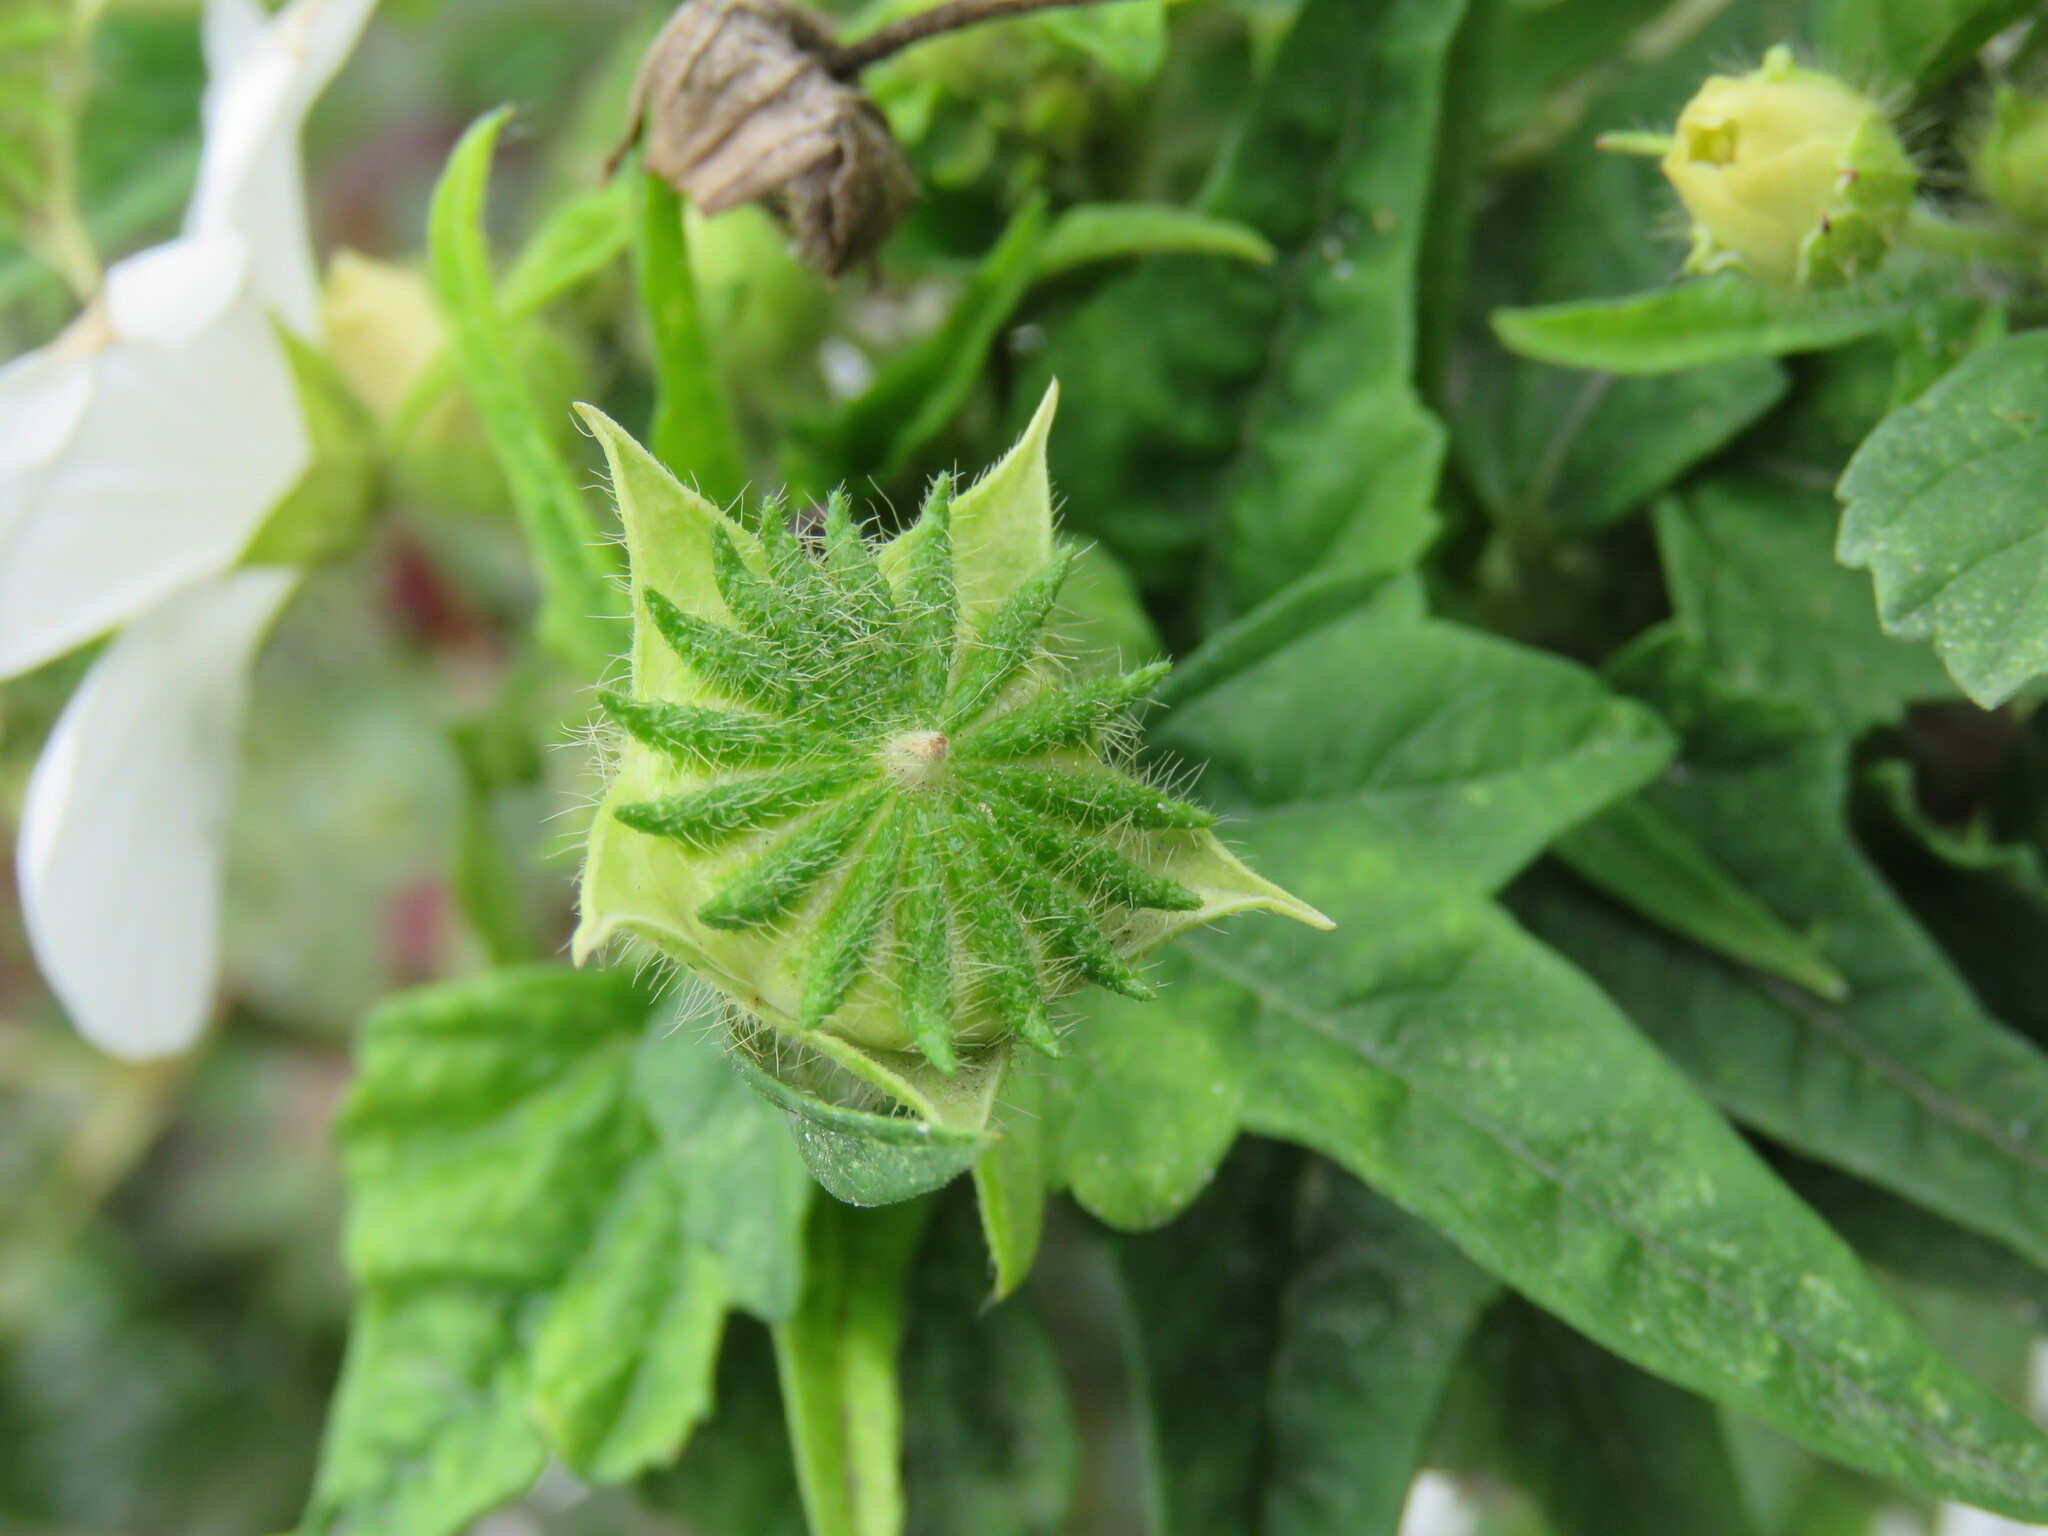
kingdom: Plantae
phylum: Tracheophyta
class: Magnoliopsida
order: Malvales
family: Malvaceae
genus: Anoda
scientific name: Anoda albiflora
